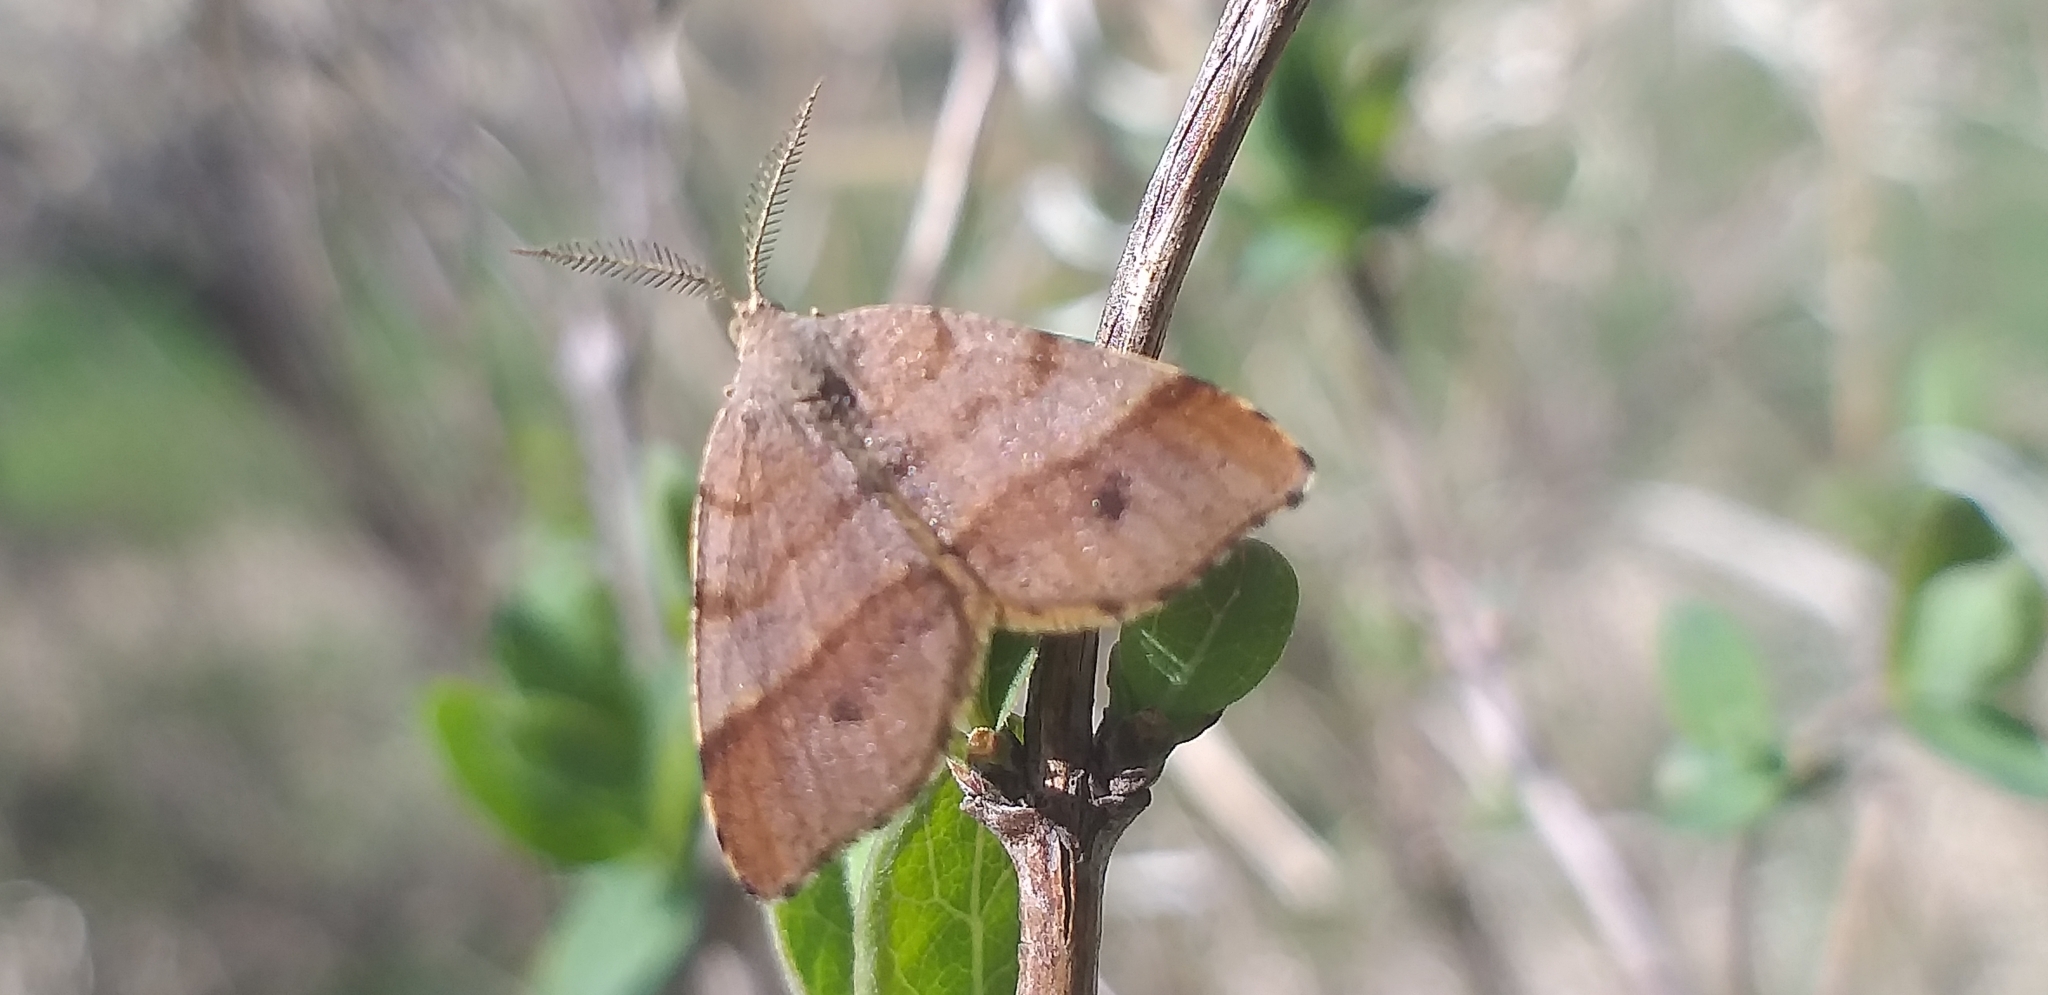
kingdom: Animalia
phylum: Arthropoda
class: Insecta
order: Lepidoptera
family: Geometridae
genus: Mellilla
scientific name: Mellilla xanthometata
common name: Orange wing moth
